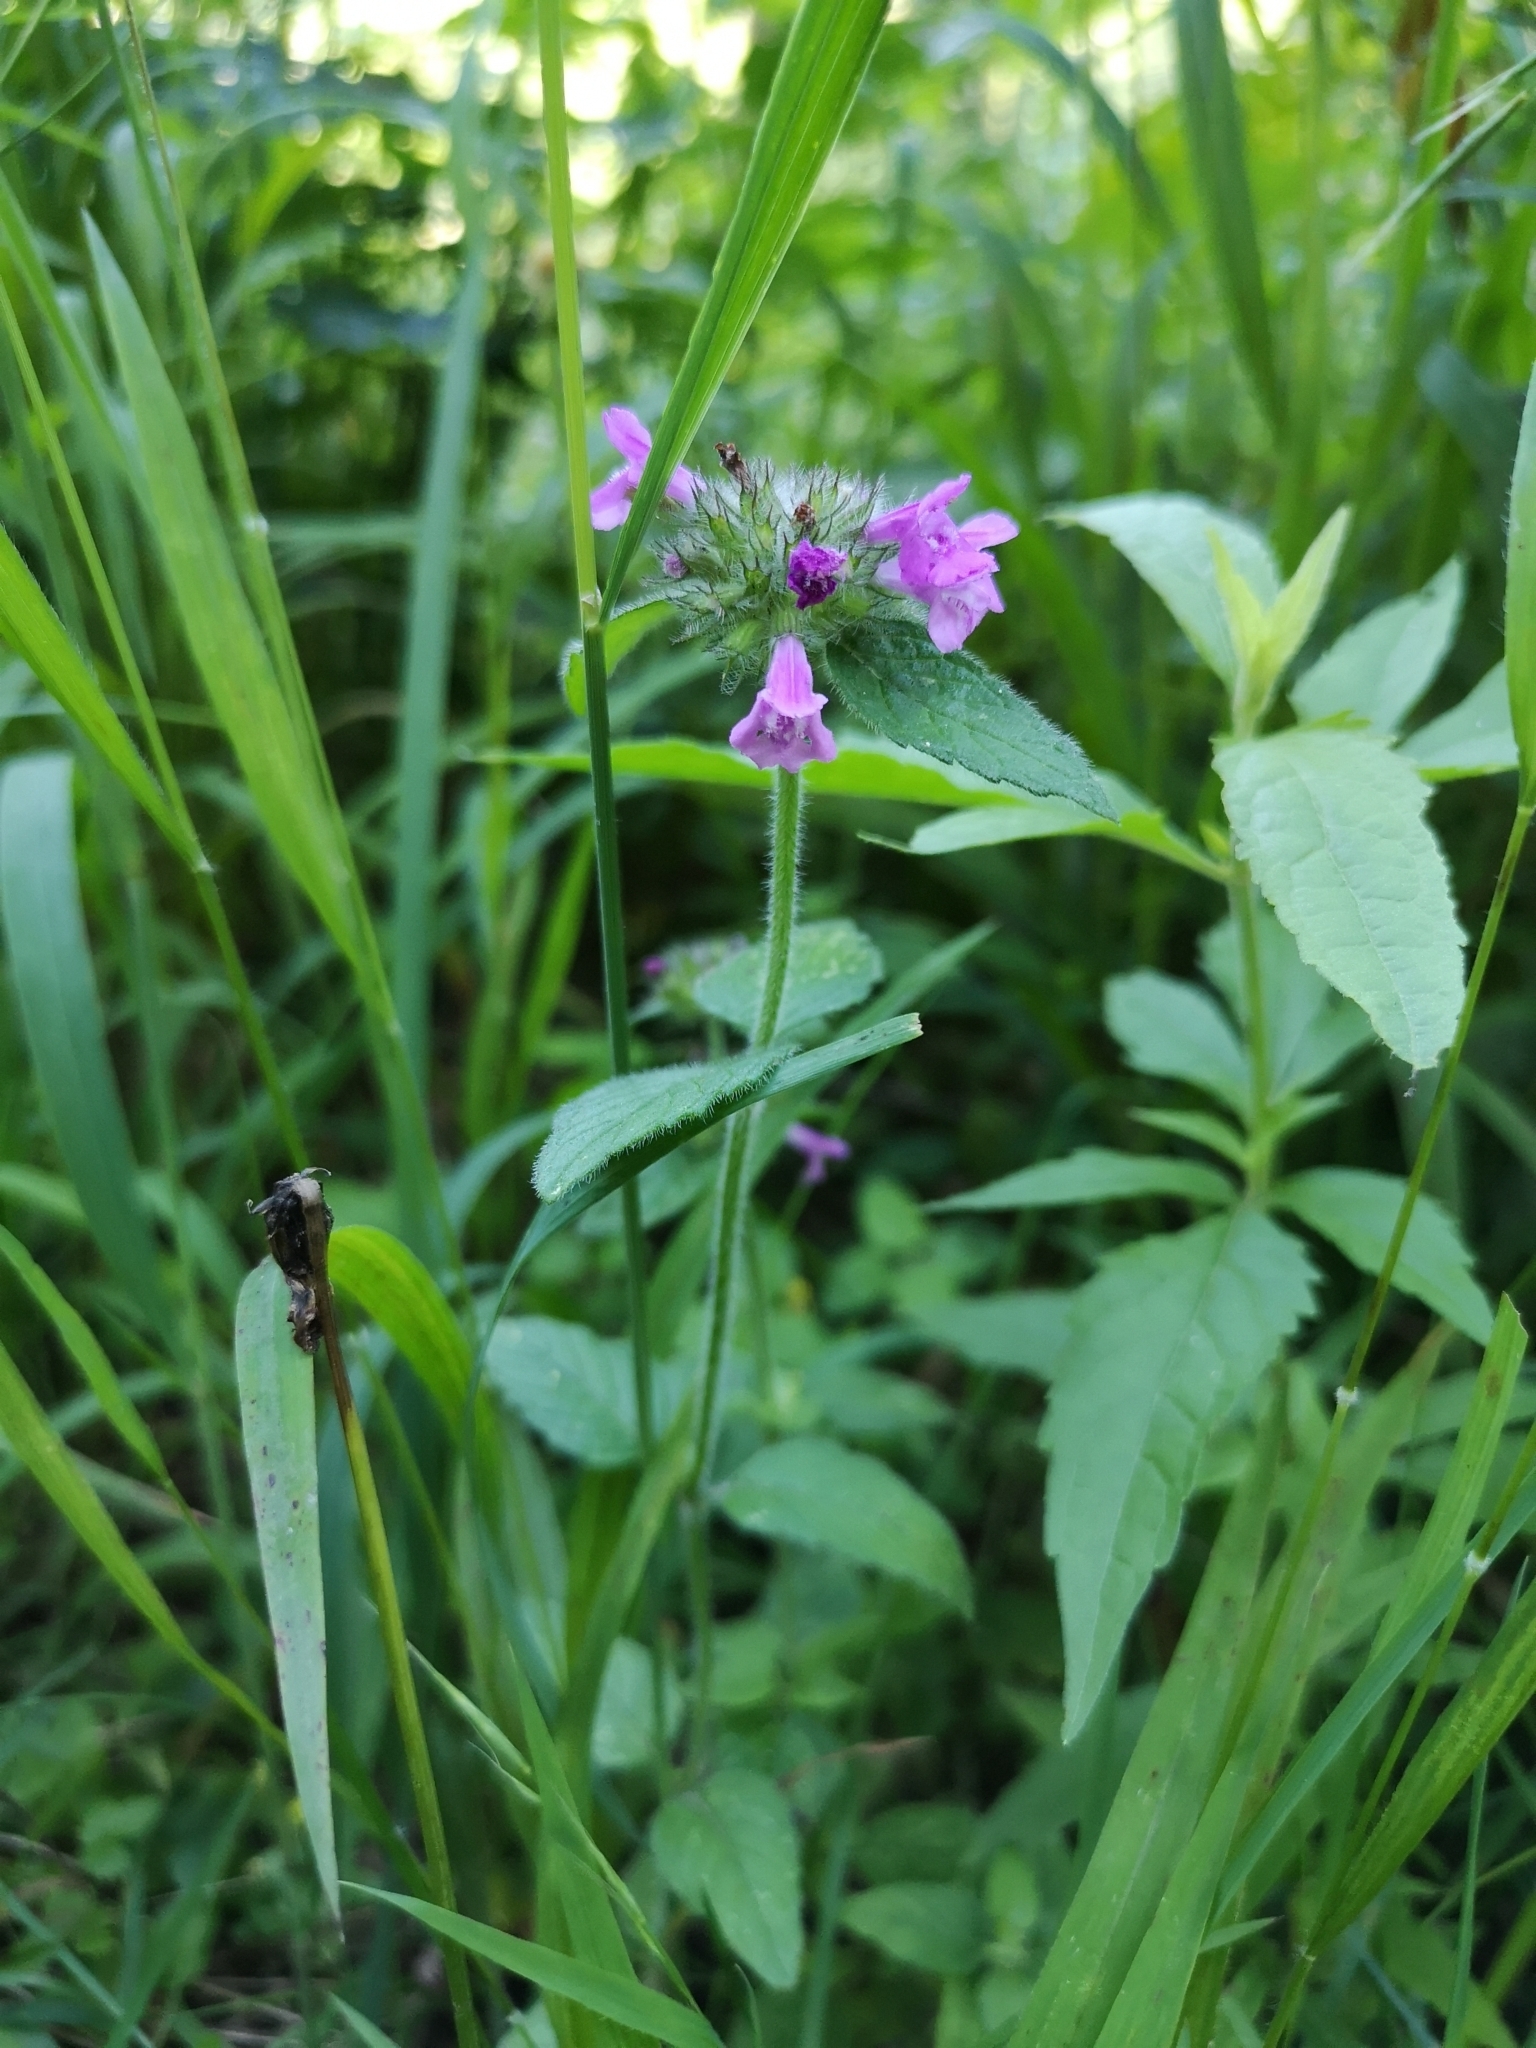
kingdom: Plantae
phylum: Tracheophyta
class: Magnoliopsida
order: Lamiales
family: Lamiaceae
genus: Clinopodium
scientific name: Clinopodium vulgare
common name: Wild basil
